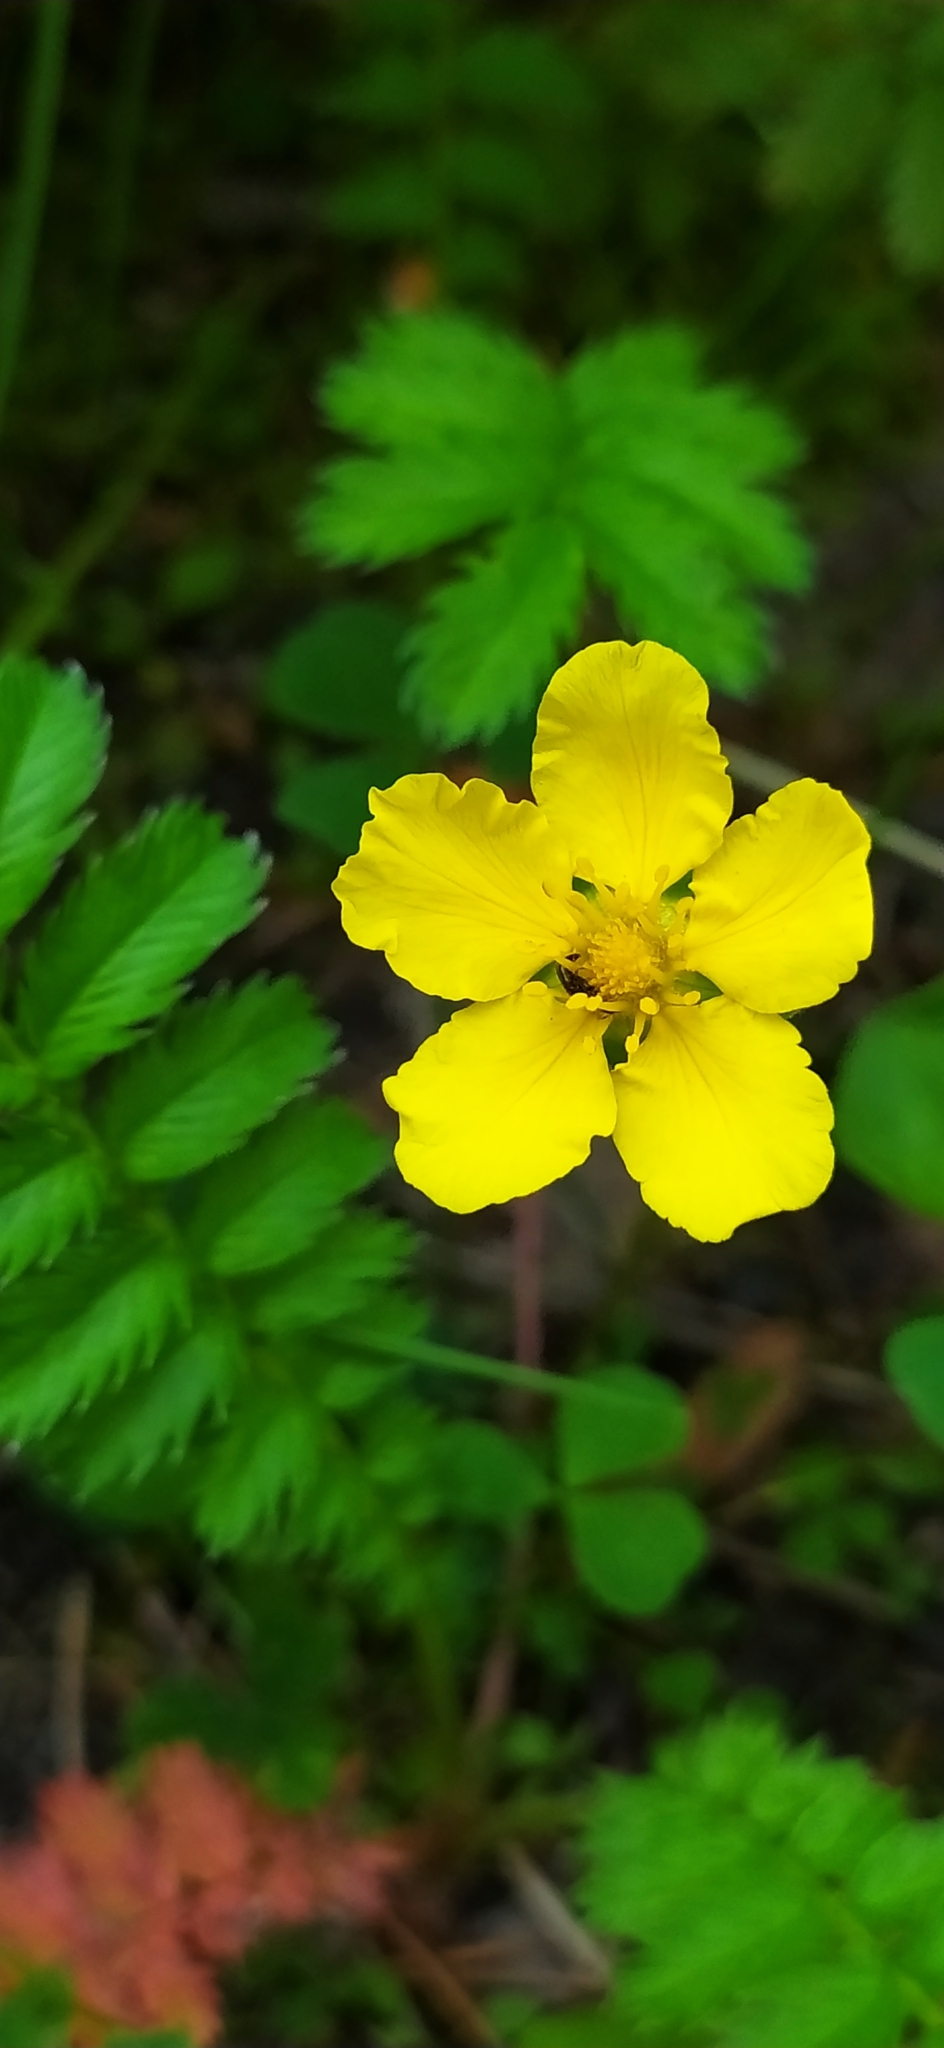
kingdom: Plantae
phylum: Tracheophyta
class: Magnoliopsida
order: Rosales
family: Rosaceae
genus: Argentina
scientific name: Argentina anserina
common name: Common silverweed
